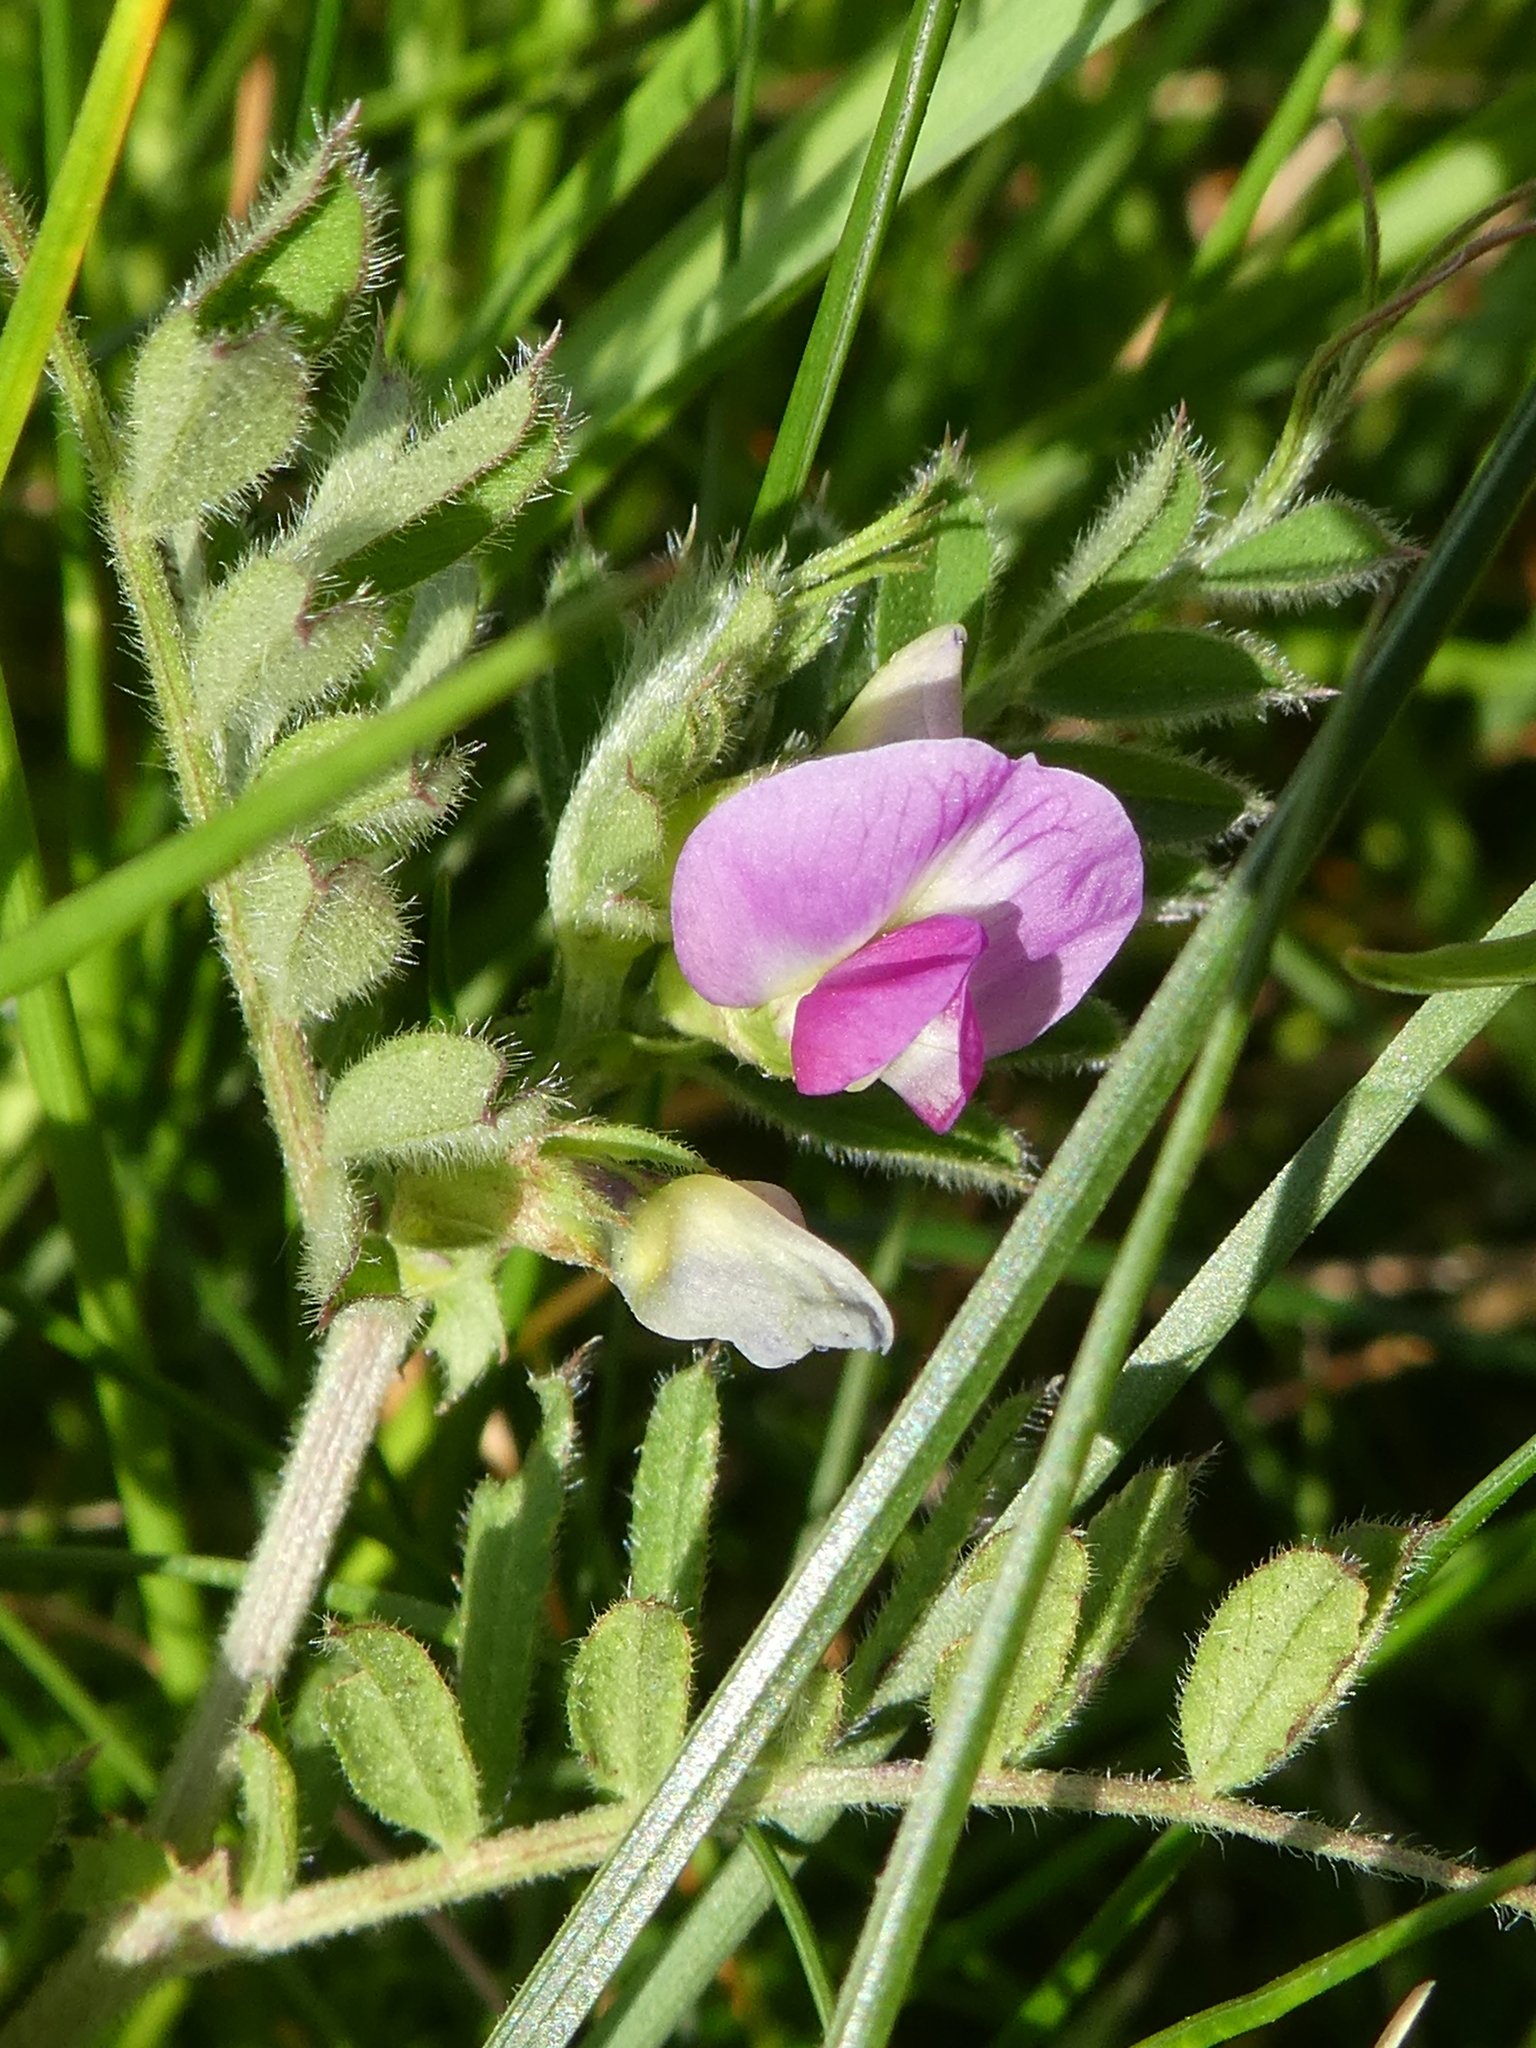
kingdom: Plantae
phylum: Tracheophyta
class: Magnoliopsida
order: Fabales
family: Fabaceae
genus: Vicia
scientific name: Vicia sativa
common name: Garden vetch
